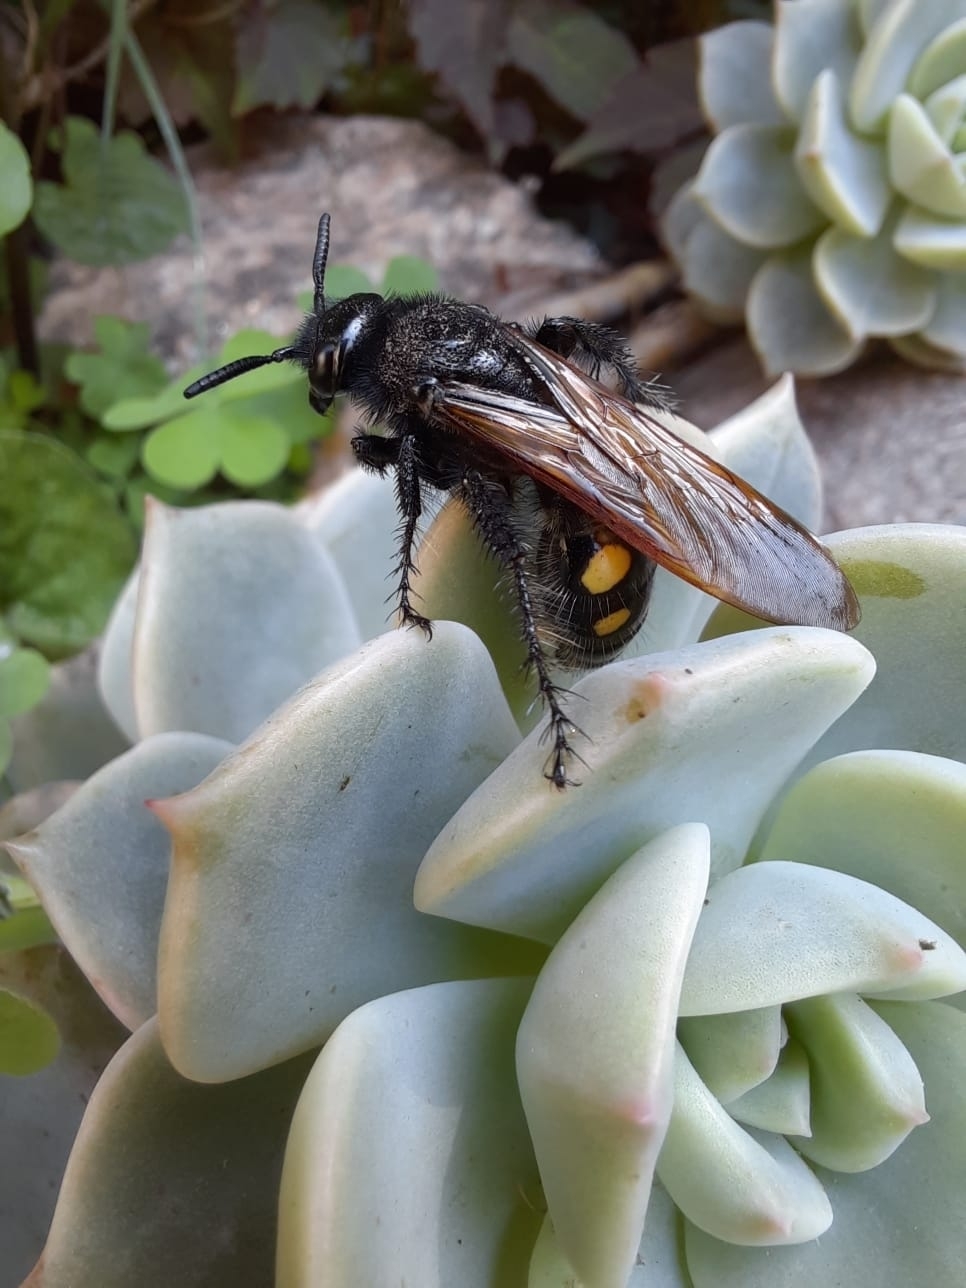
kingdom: Animalia
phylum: Arthropoda
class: Insecta
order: Hymenoptera
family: Scoliidae
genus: Pygodasis
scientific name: Pygodasis
